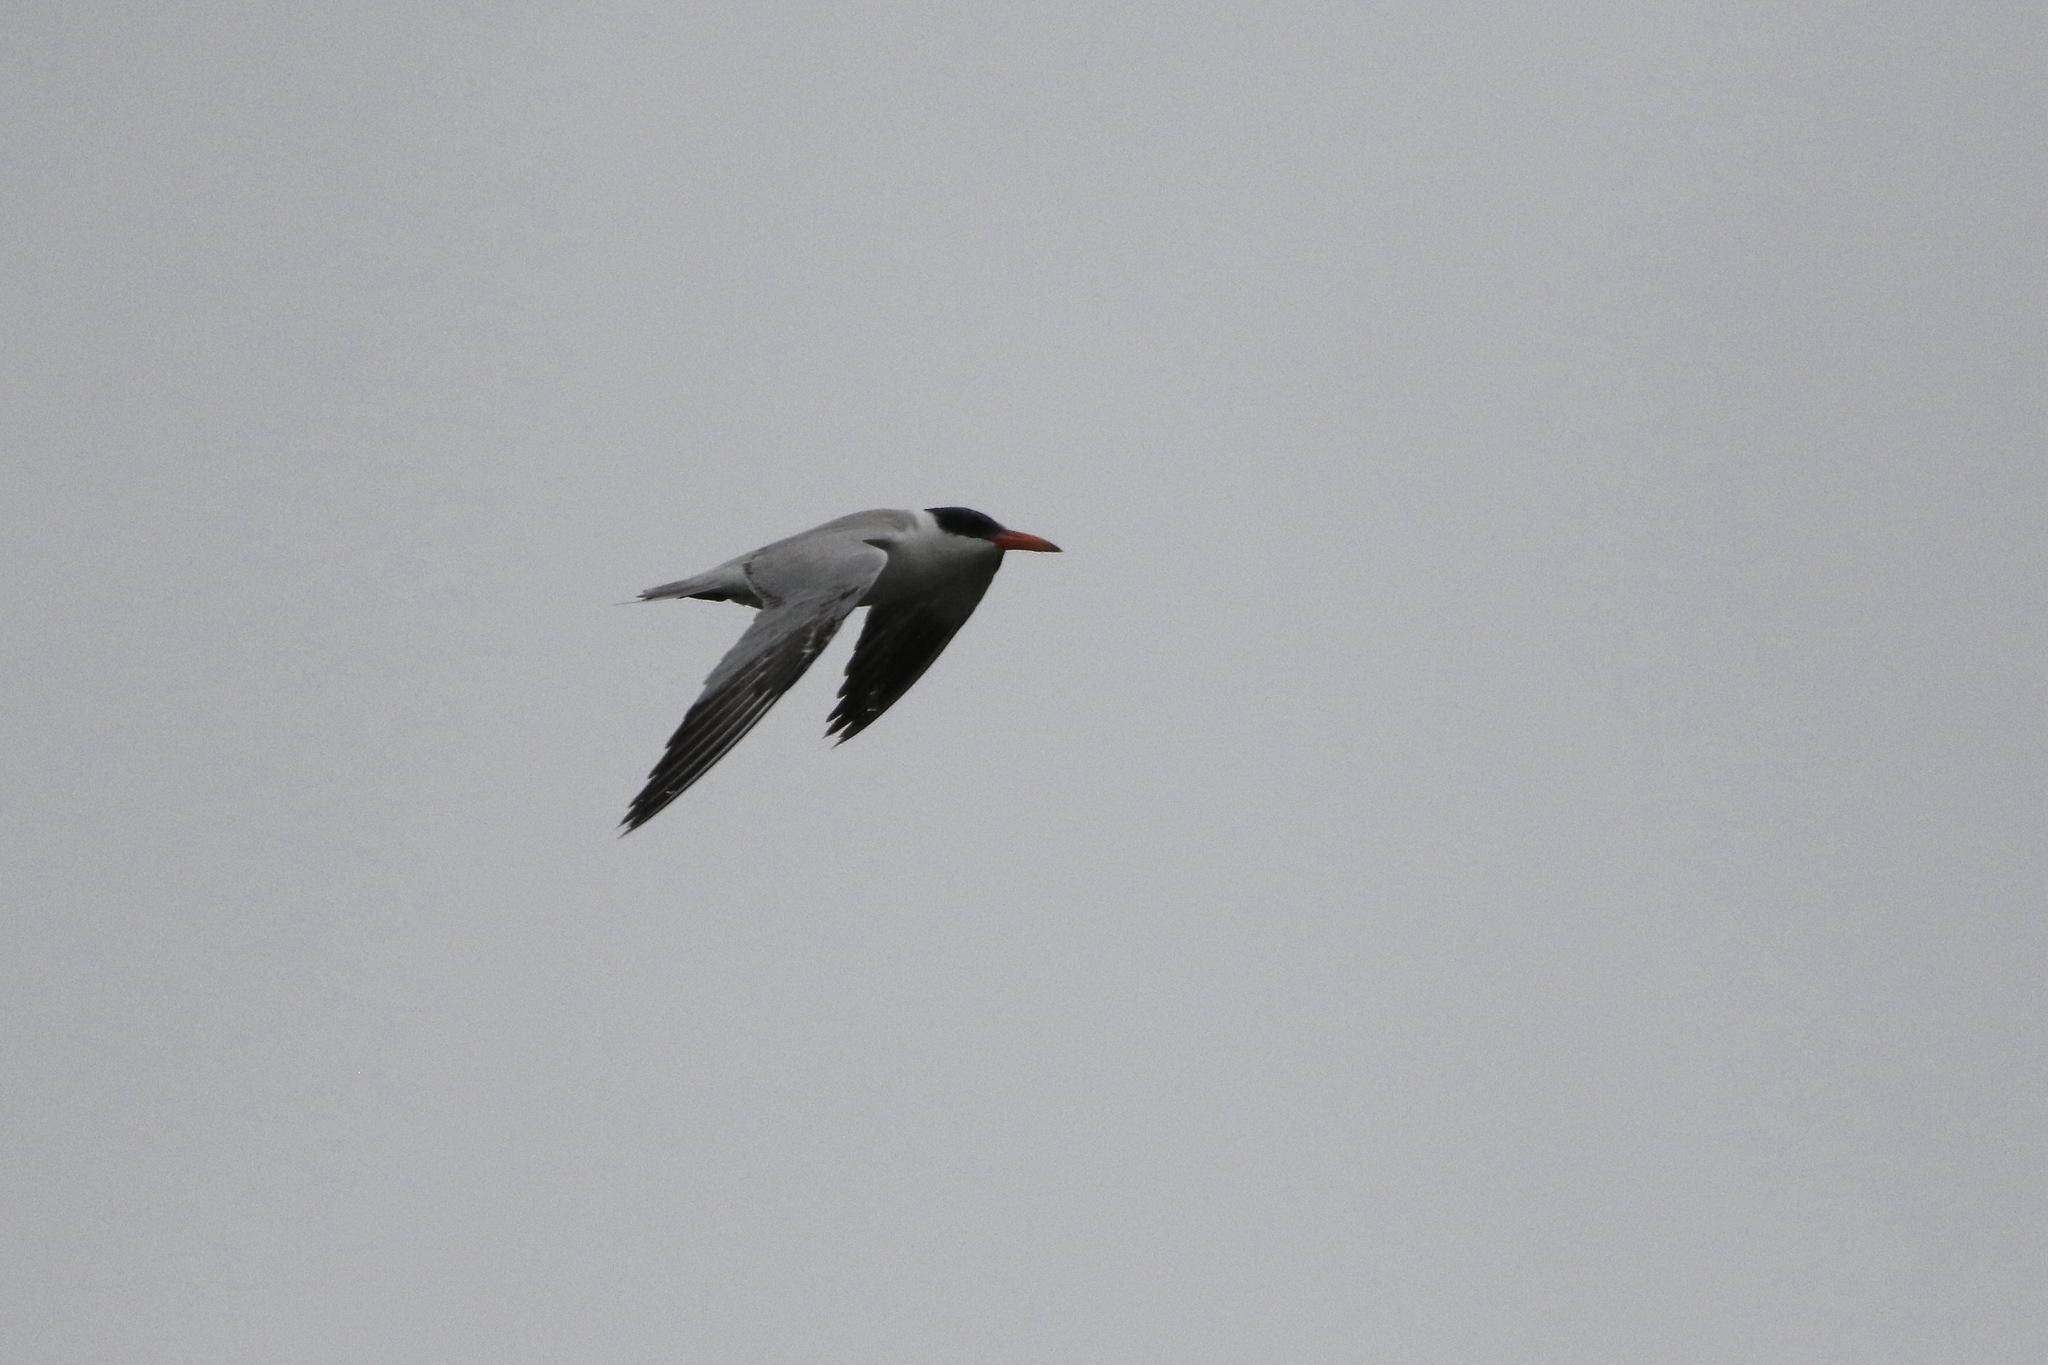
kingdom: Animalia
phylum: Chordata
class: Aves
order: Charadriiformes
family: Laridae
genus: Hydroprogne
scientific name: Hydroprogne caspia
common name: Caspian tern
